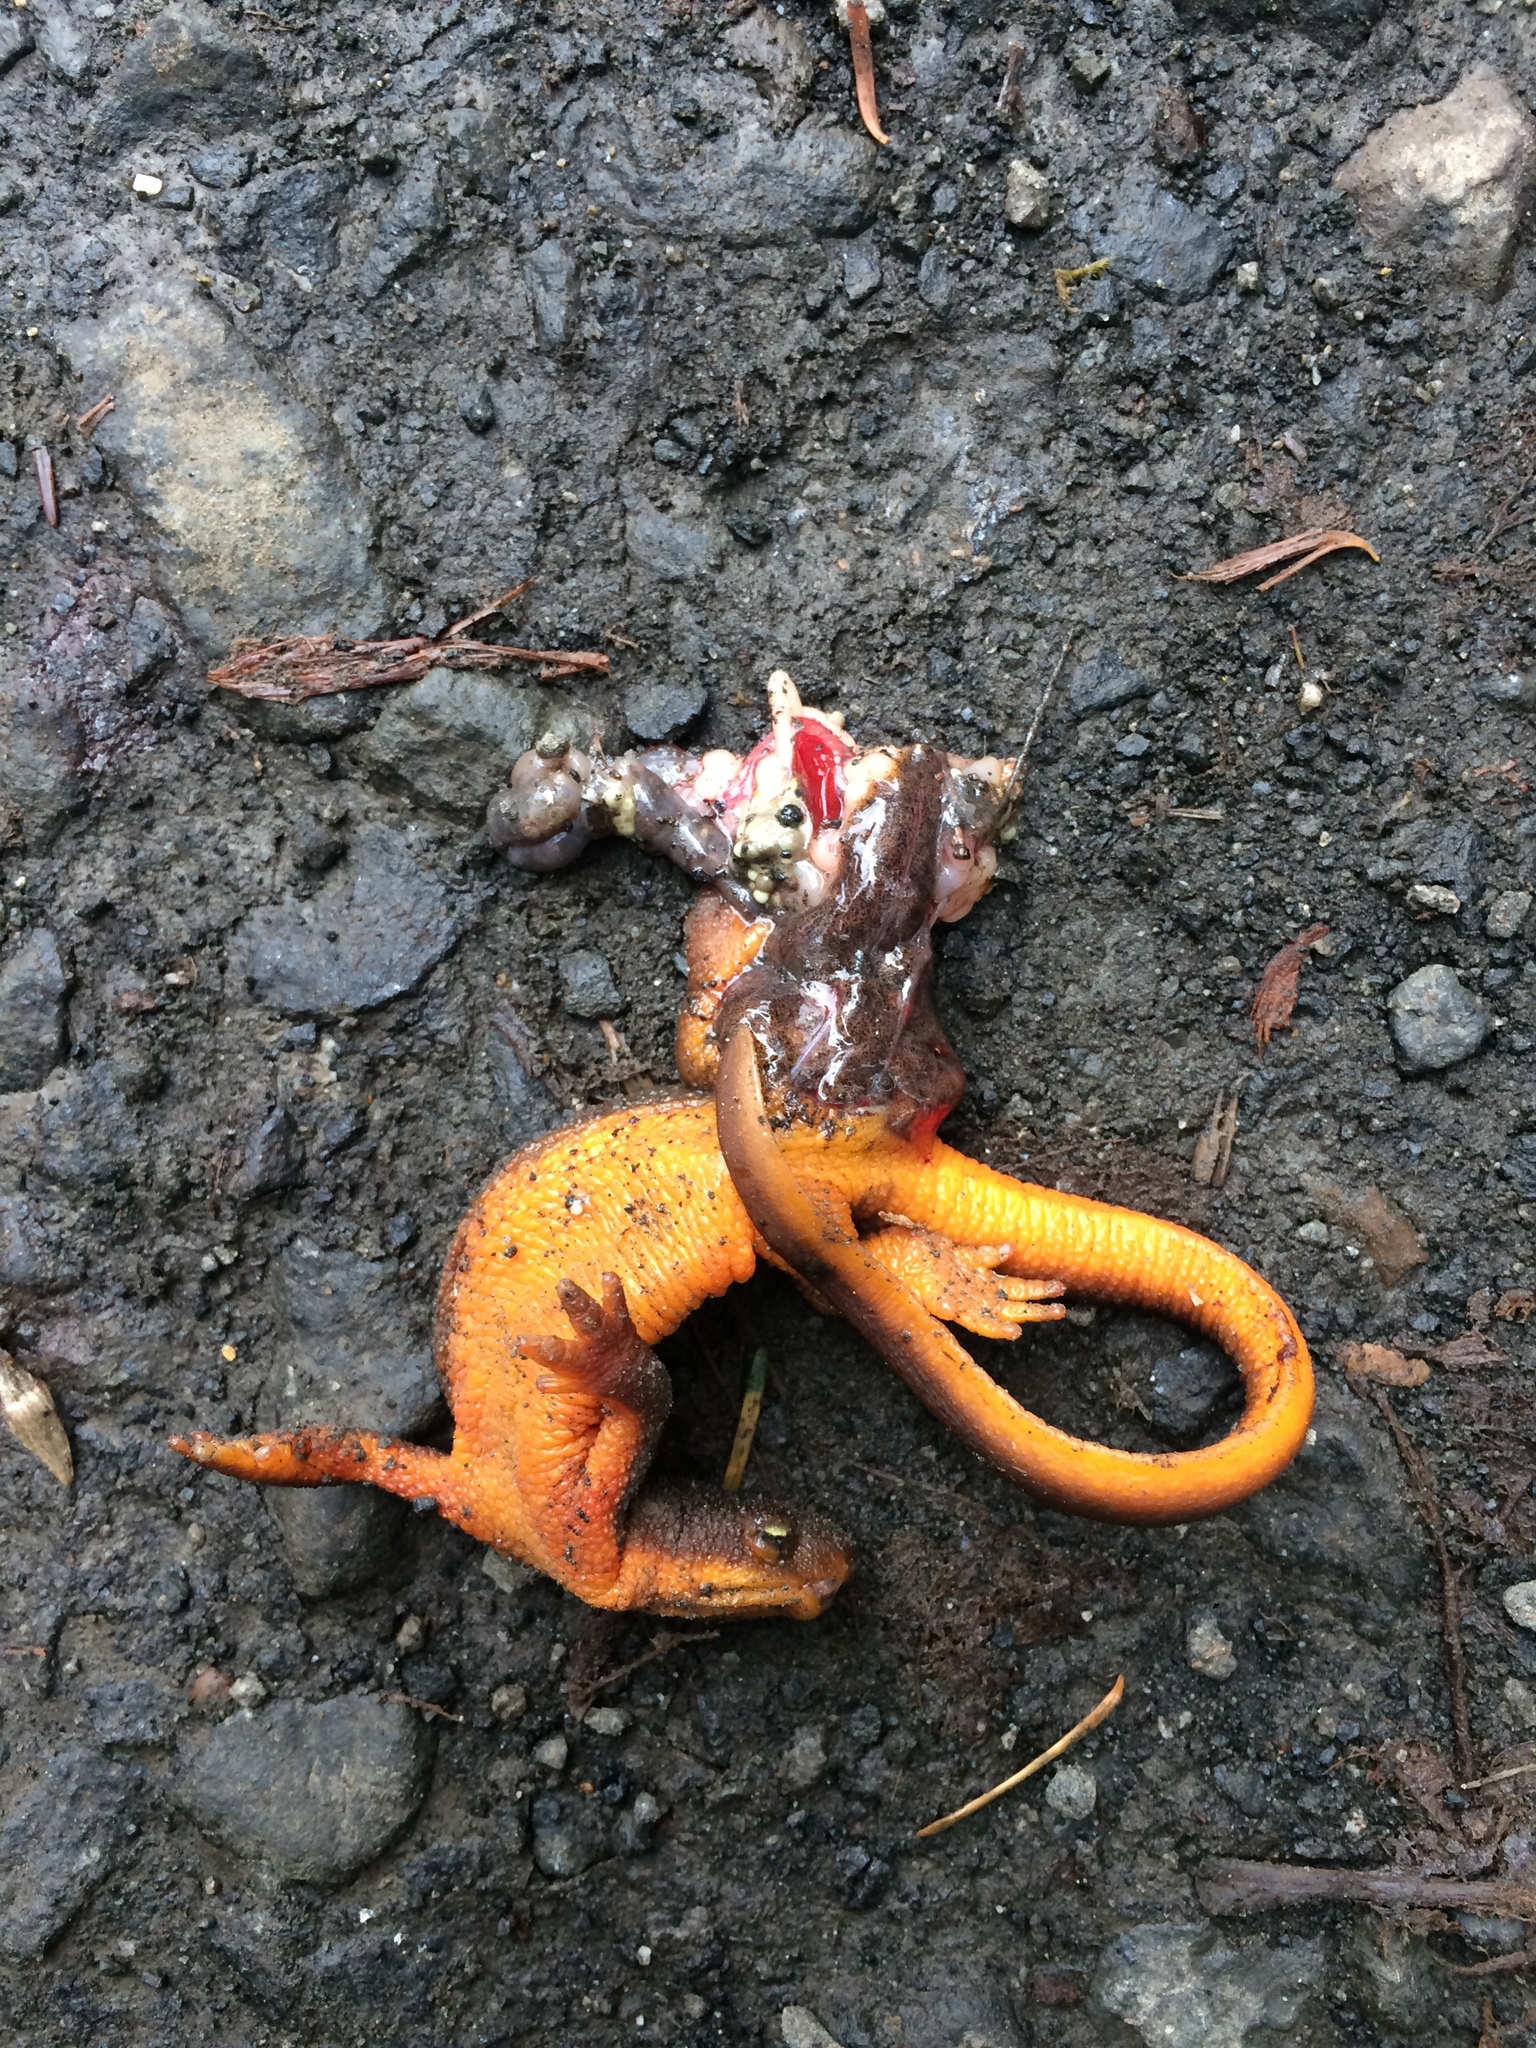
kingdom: Animalia
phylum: Chordata
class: Amphibia
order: Caudata
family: Salamandridae
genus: Taricha
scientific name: Taricha granulosa
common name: Roughskin newt
